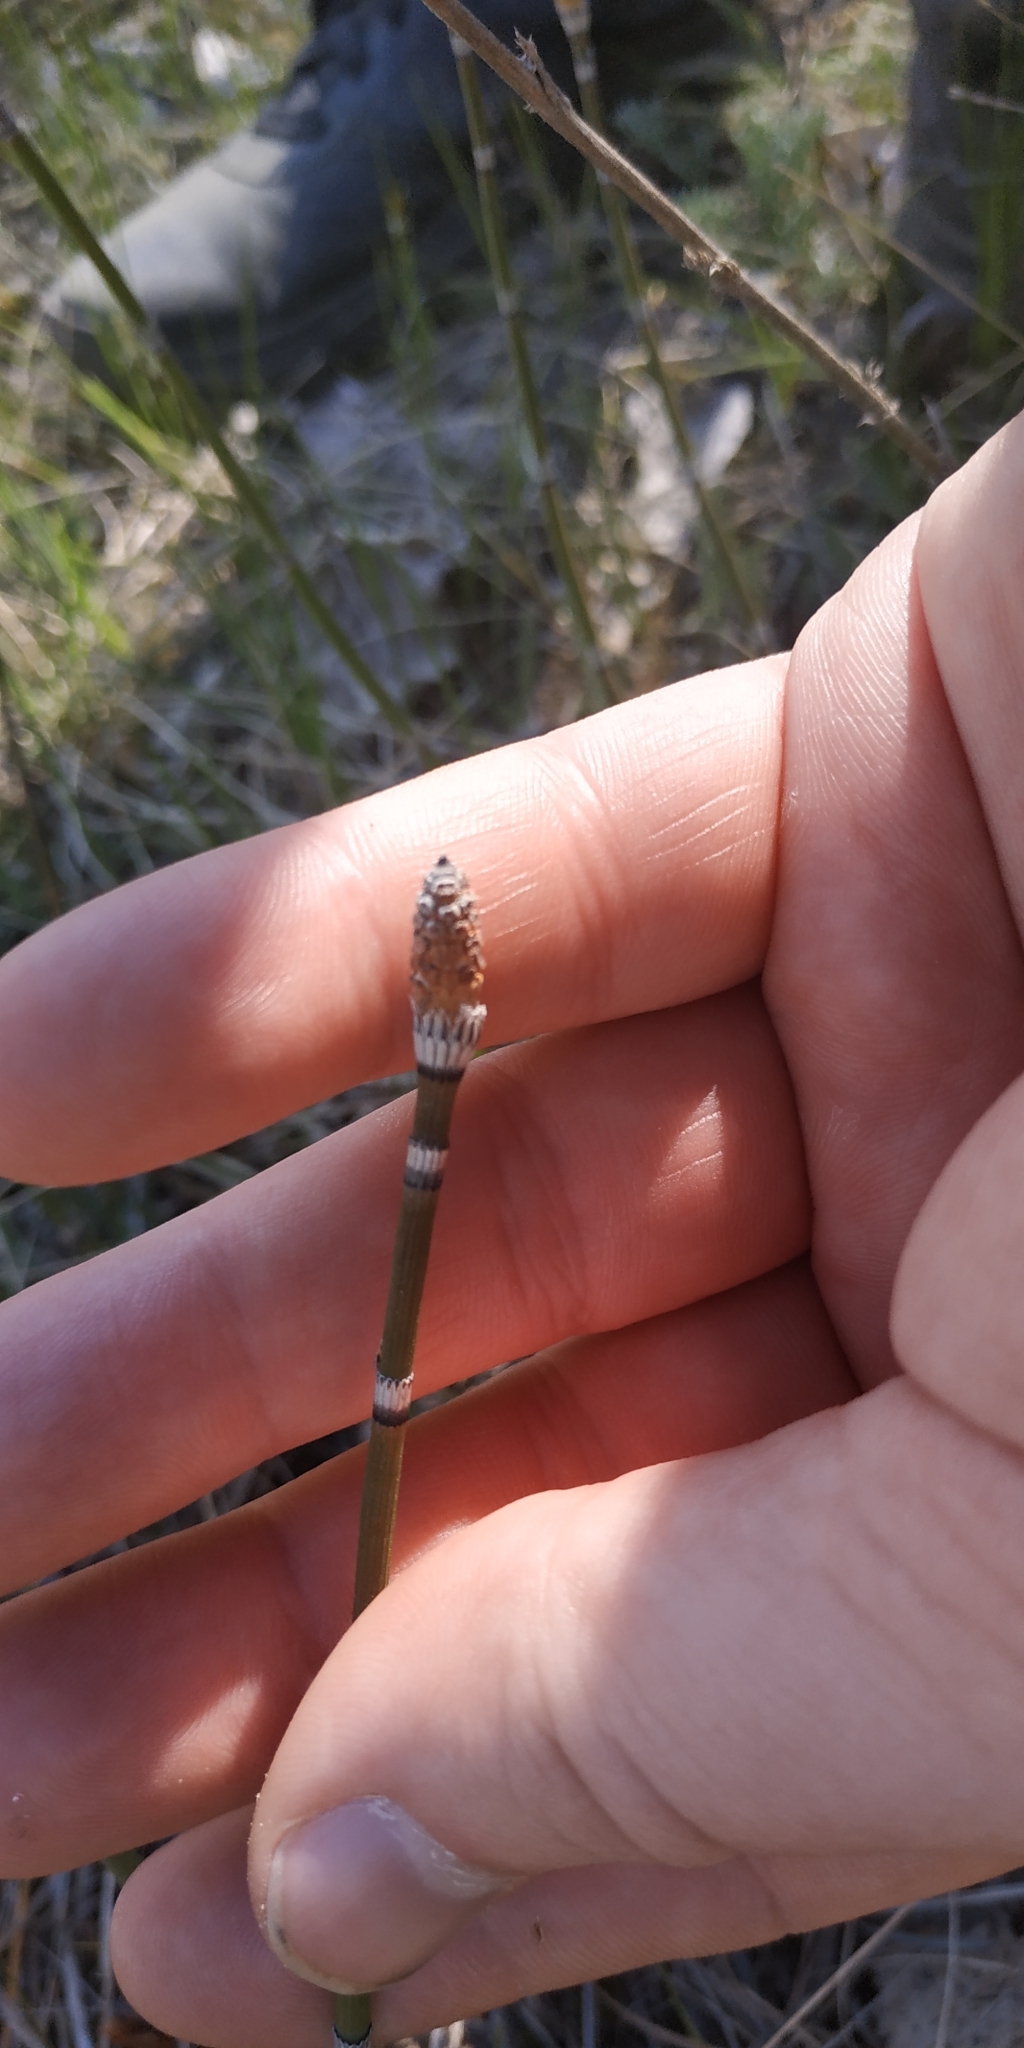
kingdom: Plantae
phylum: Tracheophyta
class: Polypodiopsida
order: Equisetales
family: Equisetaceae
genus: Equisetum
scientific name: Equisetum hyemale
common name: Rough horsetail
